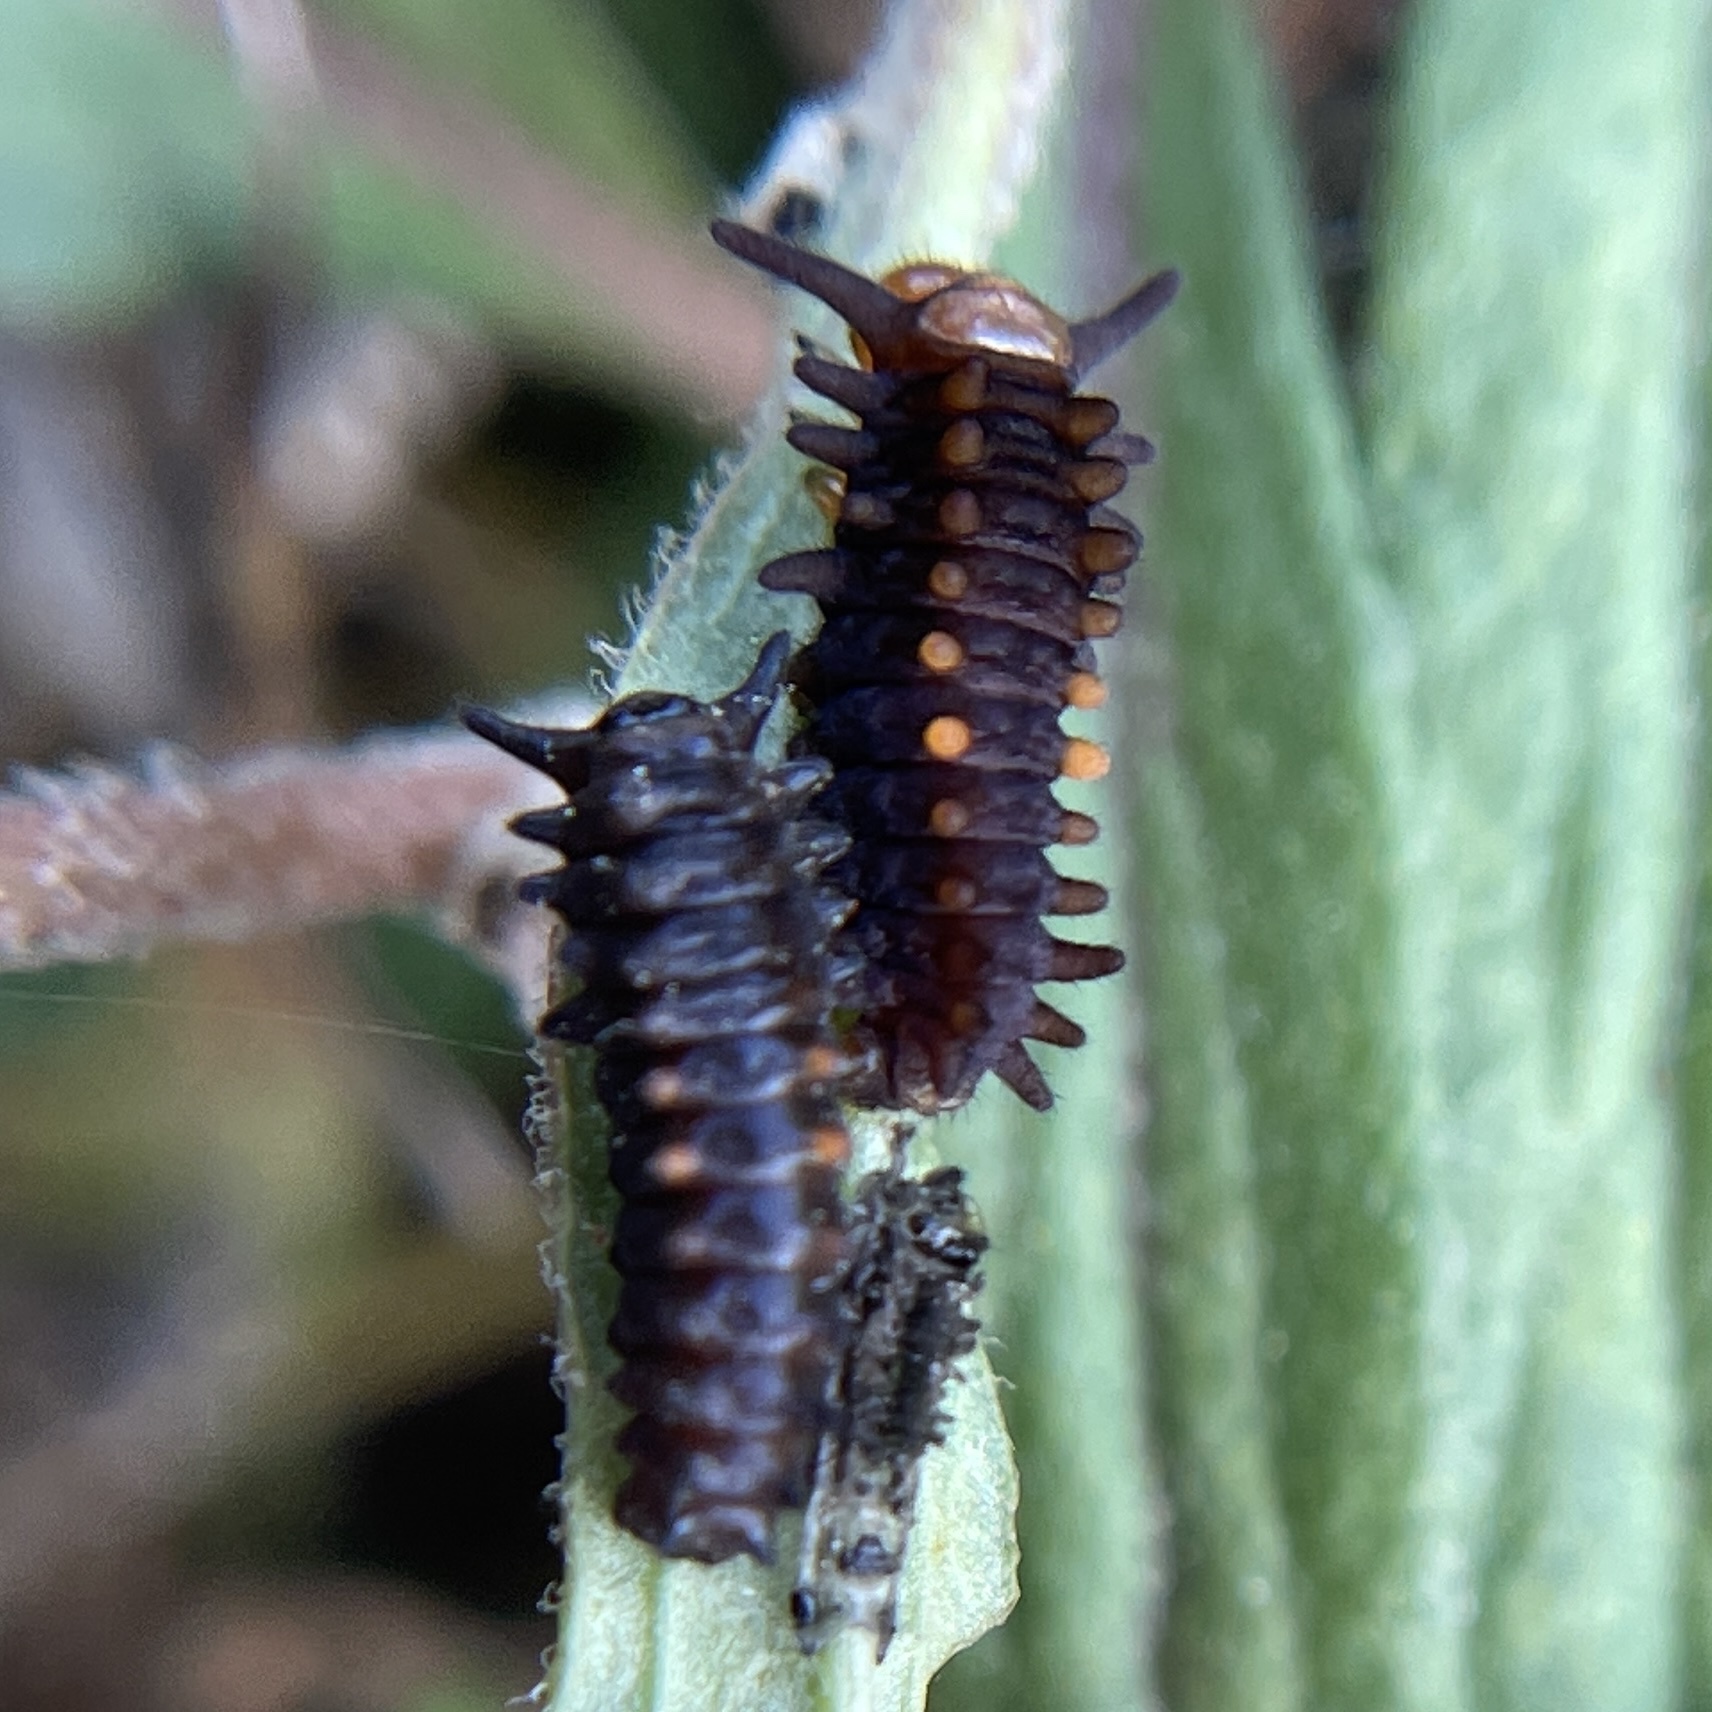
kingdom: Animalia
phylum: Arthropoda
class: Insecta
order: Lepidoptera
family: Papilionidae
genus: Battus
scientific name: Battus philenor
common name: Pipevine swallowtail
